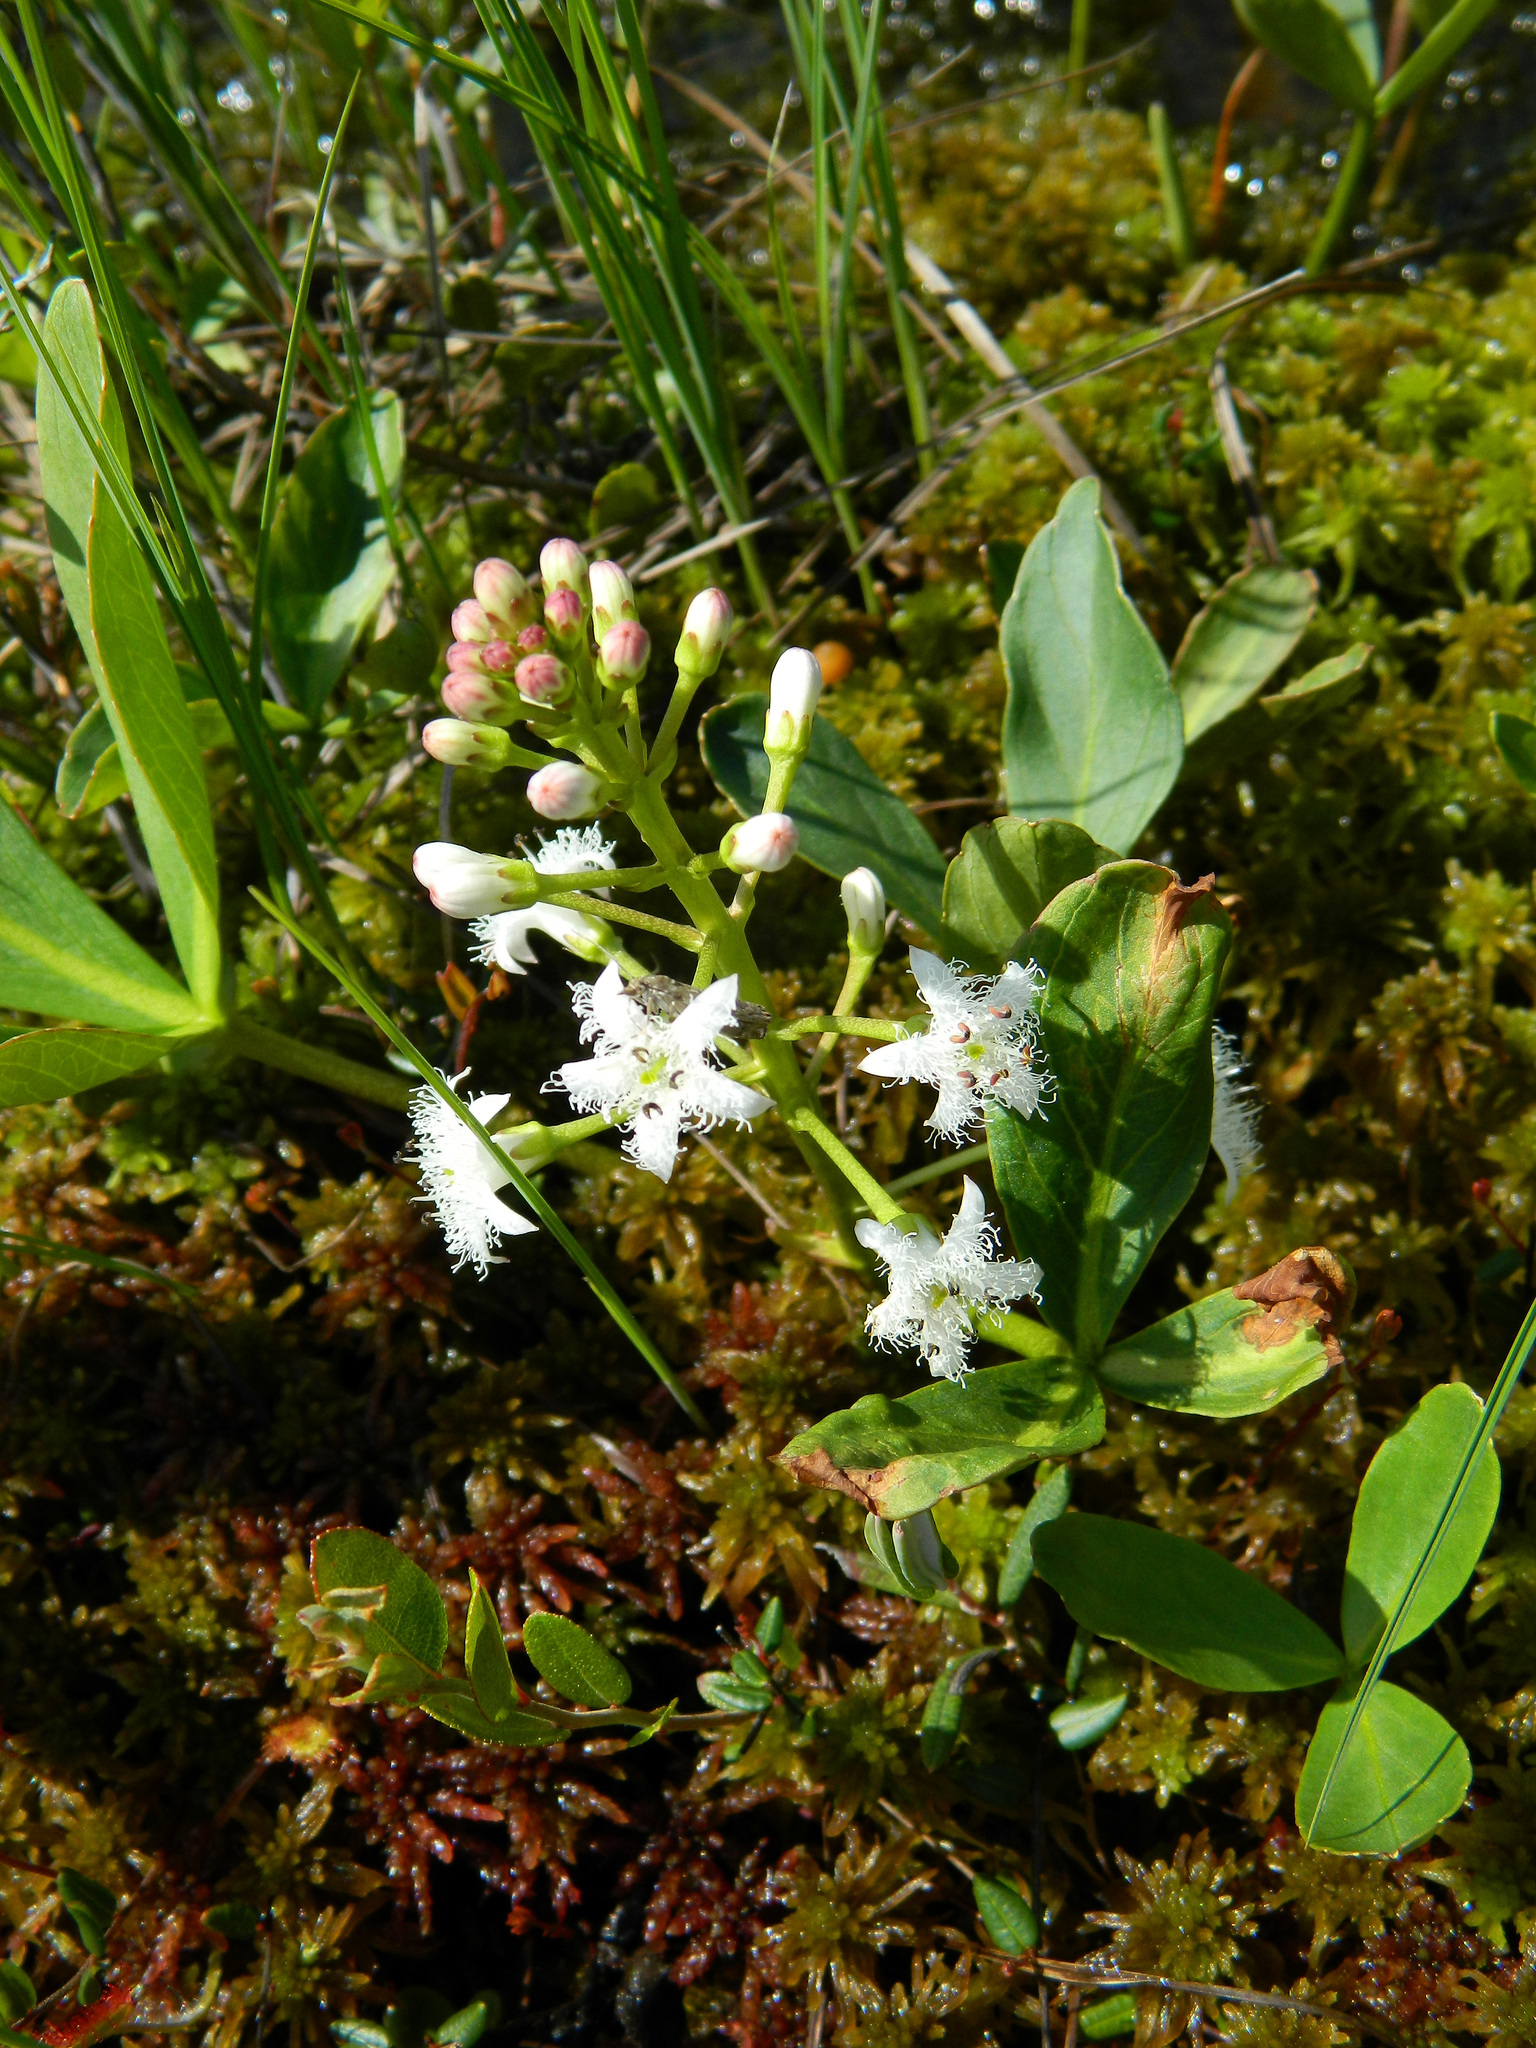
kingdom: Plantae
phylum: Tracheophyta
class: Magnoliopsida
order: Asterales
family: Menyanthaceae
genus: Menyanthes
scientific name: Menyanthes trifoliata
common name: Bogbean
